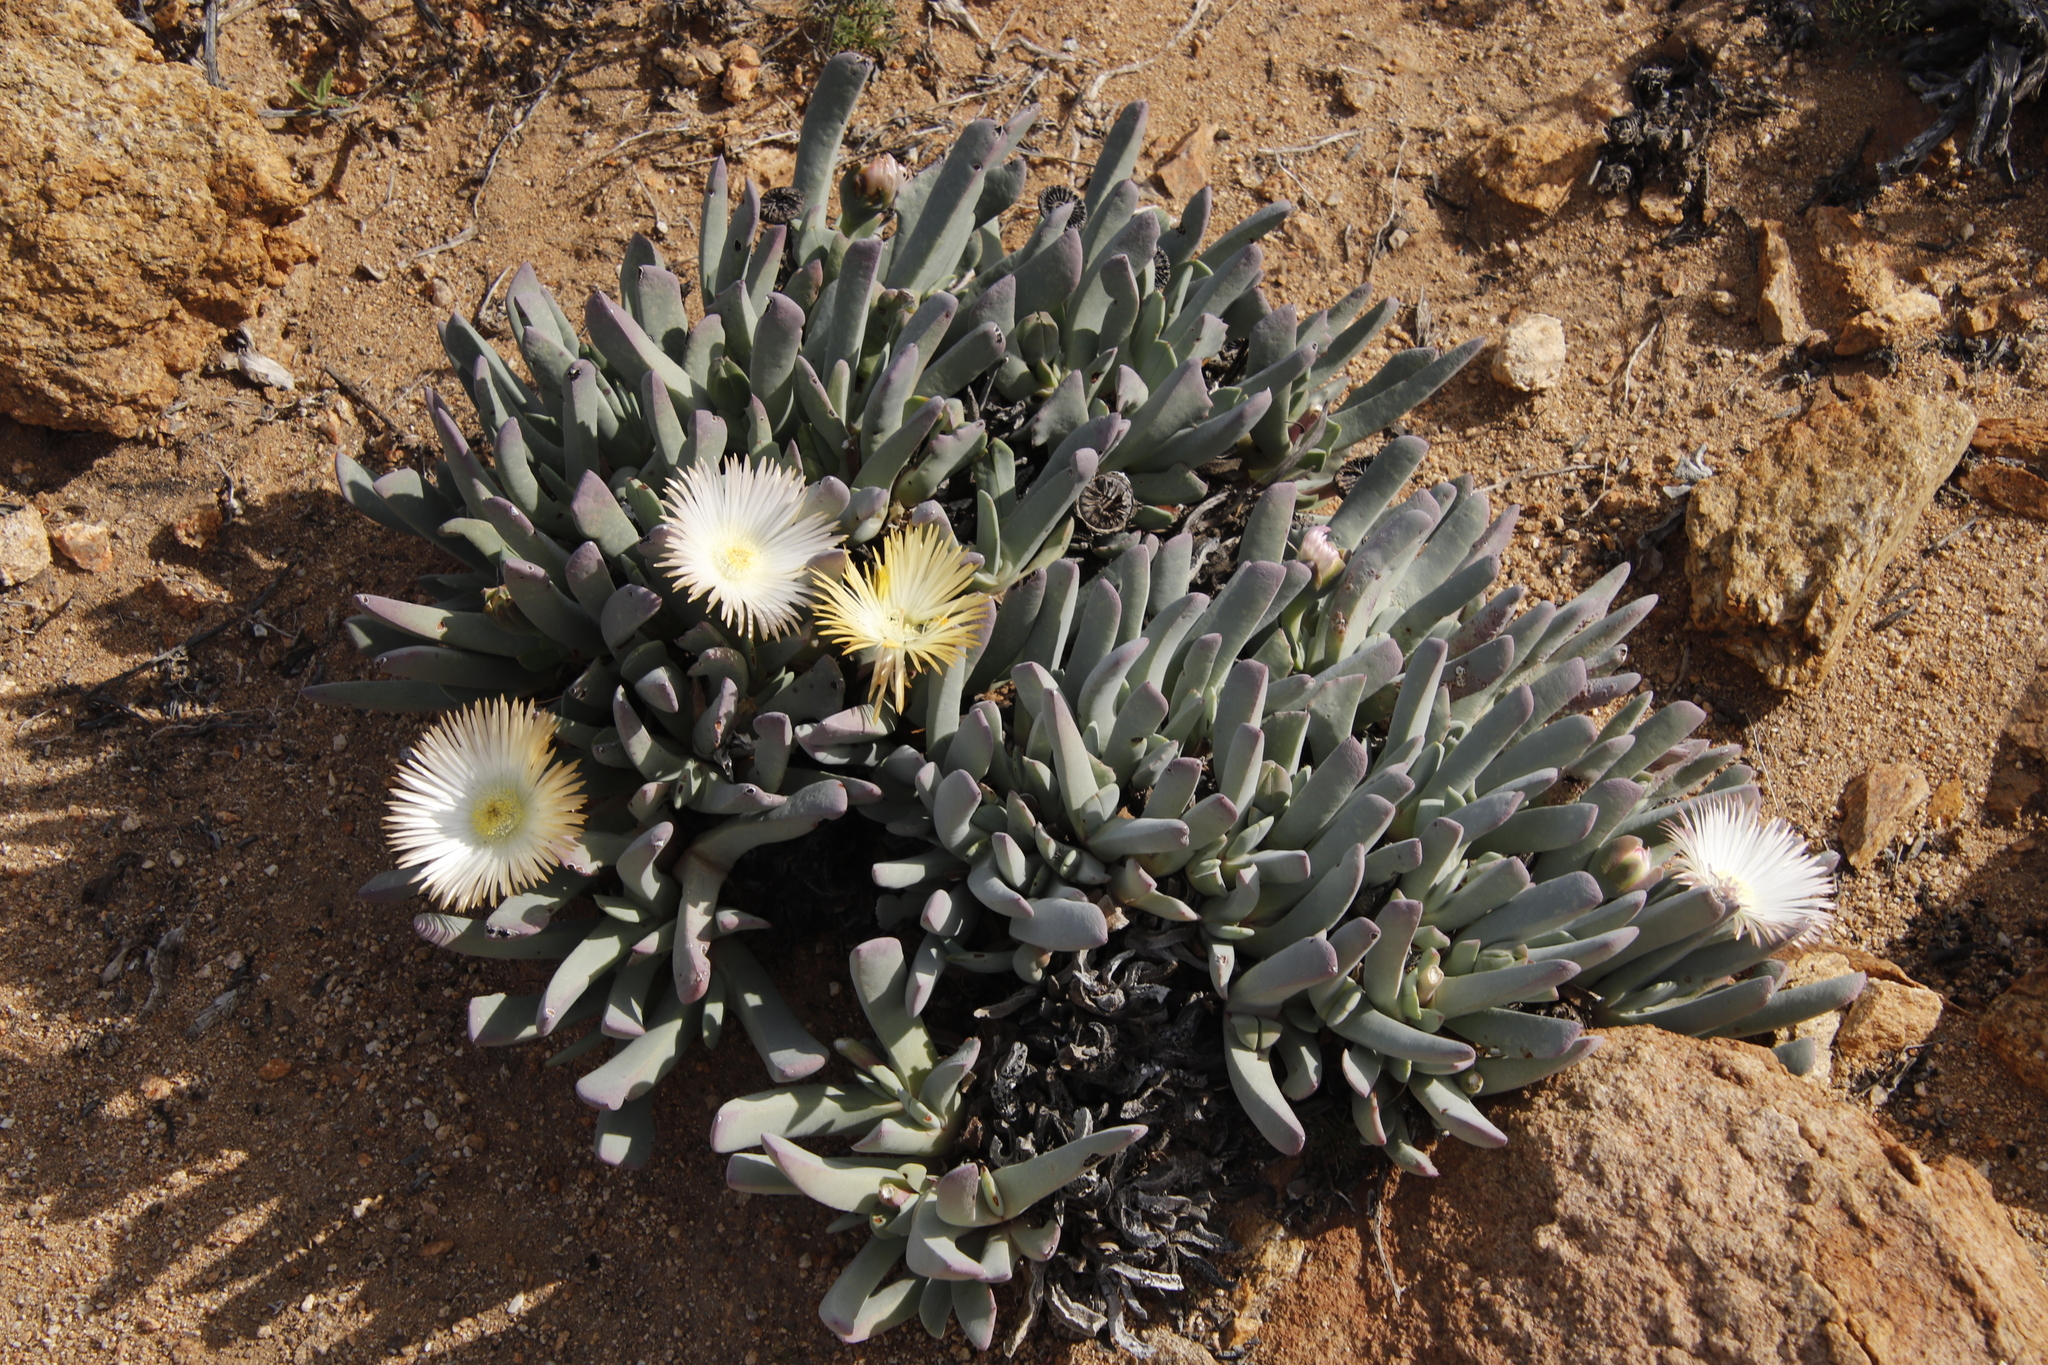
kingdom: Plantae
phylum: Tracheophyta
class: Magnoliopsida
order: Caryophyllales
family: Aizoaceae
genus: Cheiridopsis
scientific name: Cheiridopsis denticulata
